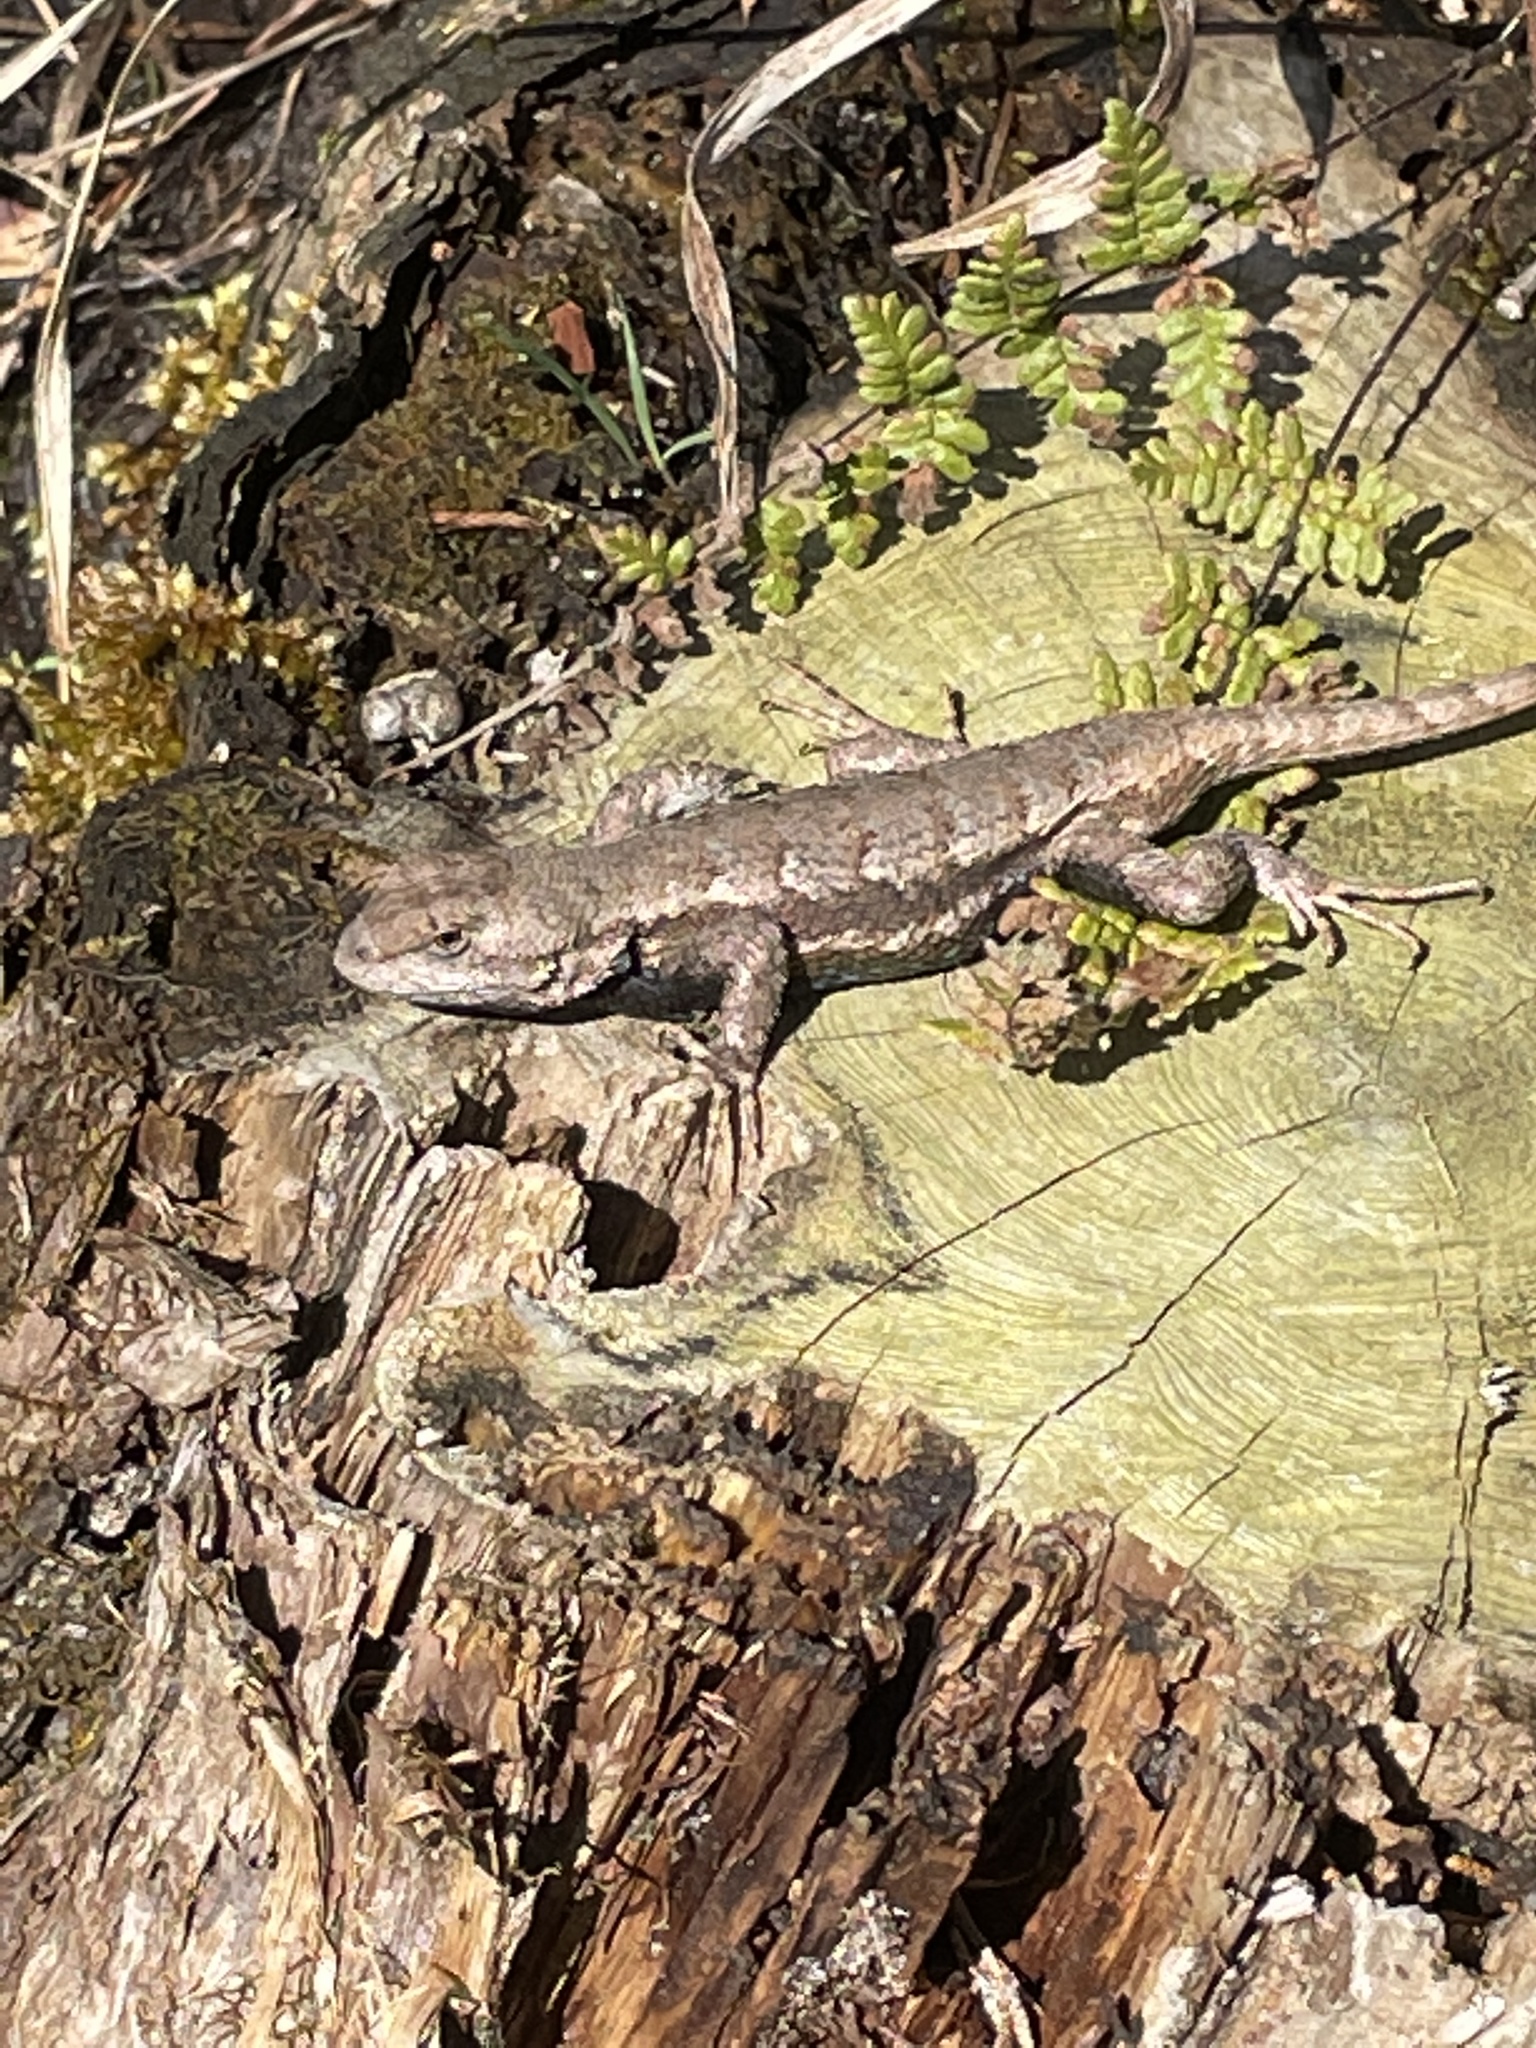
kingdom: Animalia
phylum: Chordata
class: Squamata
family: Phrynosomatidae
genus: Sceloporus
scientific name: Sceloporus consobrinus
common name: Southern prairie lizard
